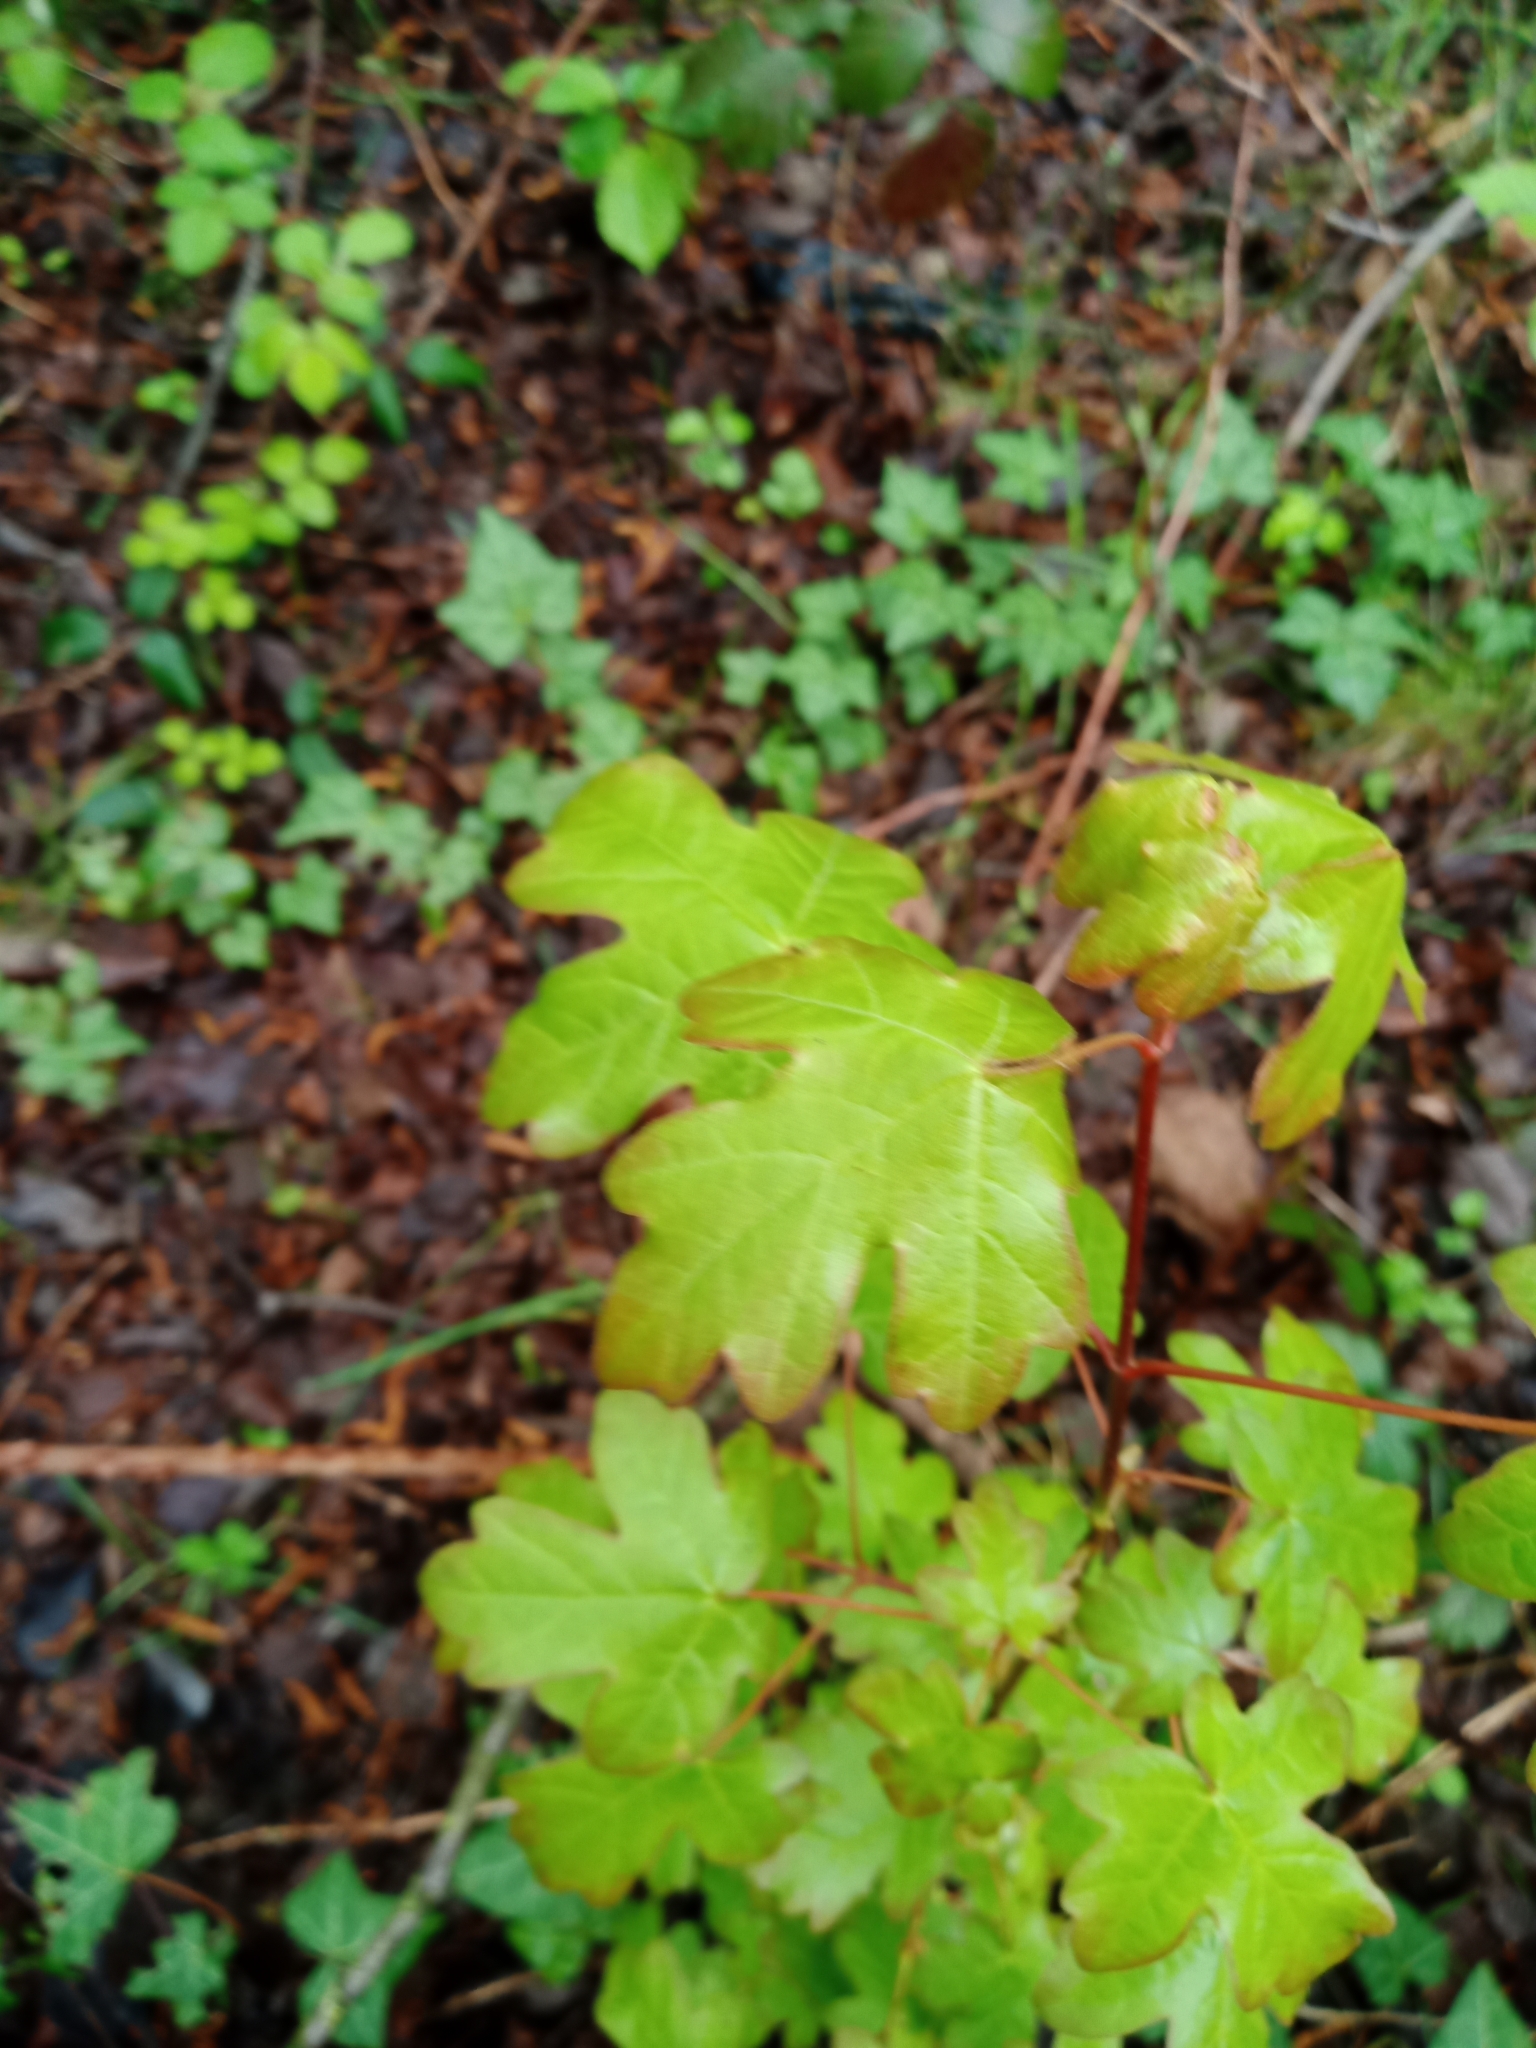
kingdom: Plantae
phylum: Tracheophyta
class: Magnoliopsida
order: Sapindales
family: Sapindaceae
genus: Acer
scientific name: Acer campestre
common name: Field maple
